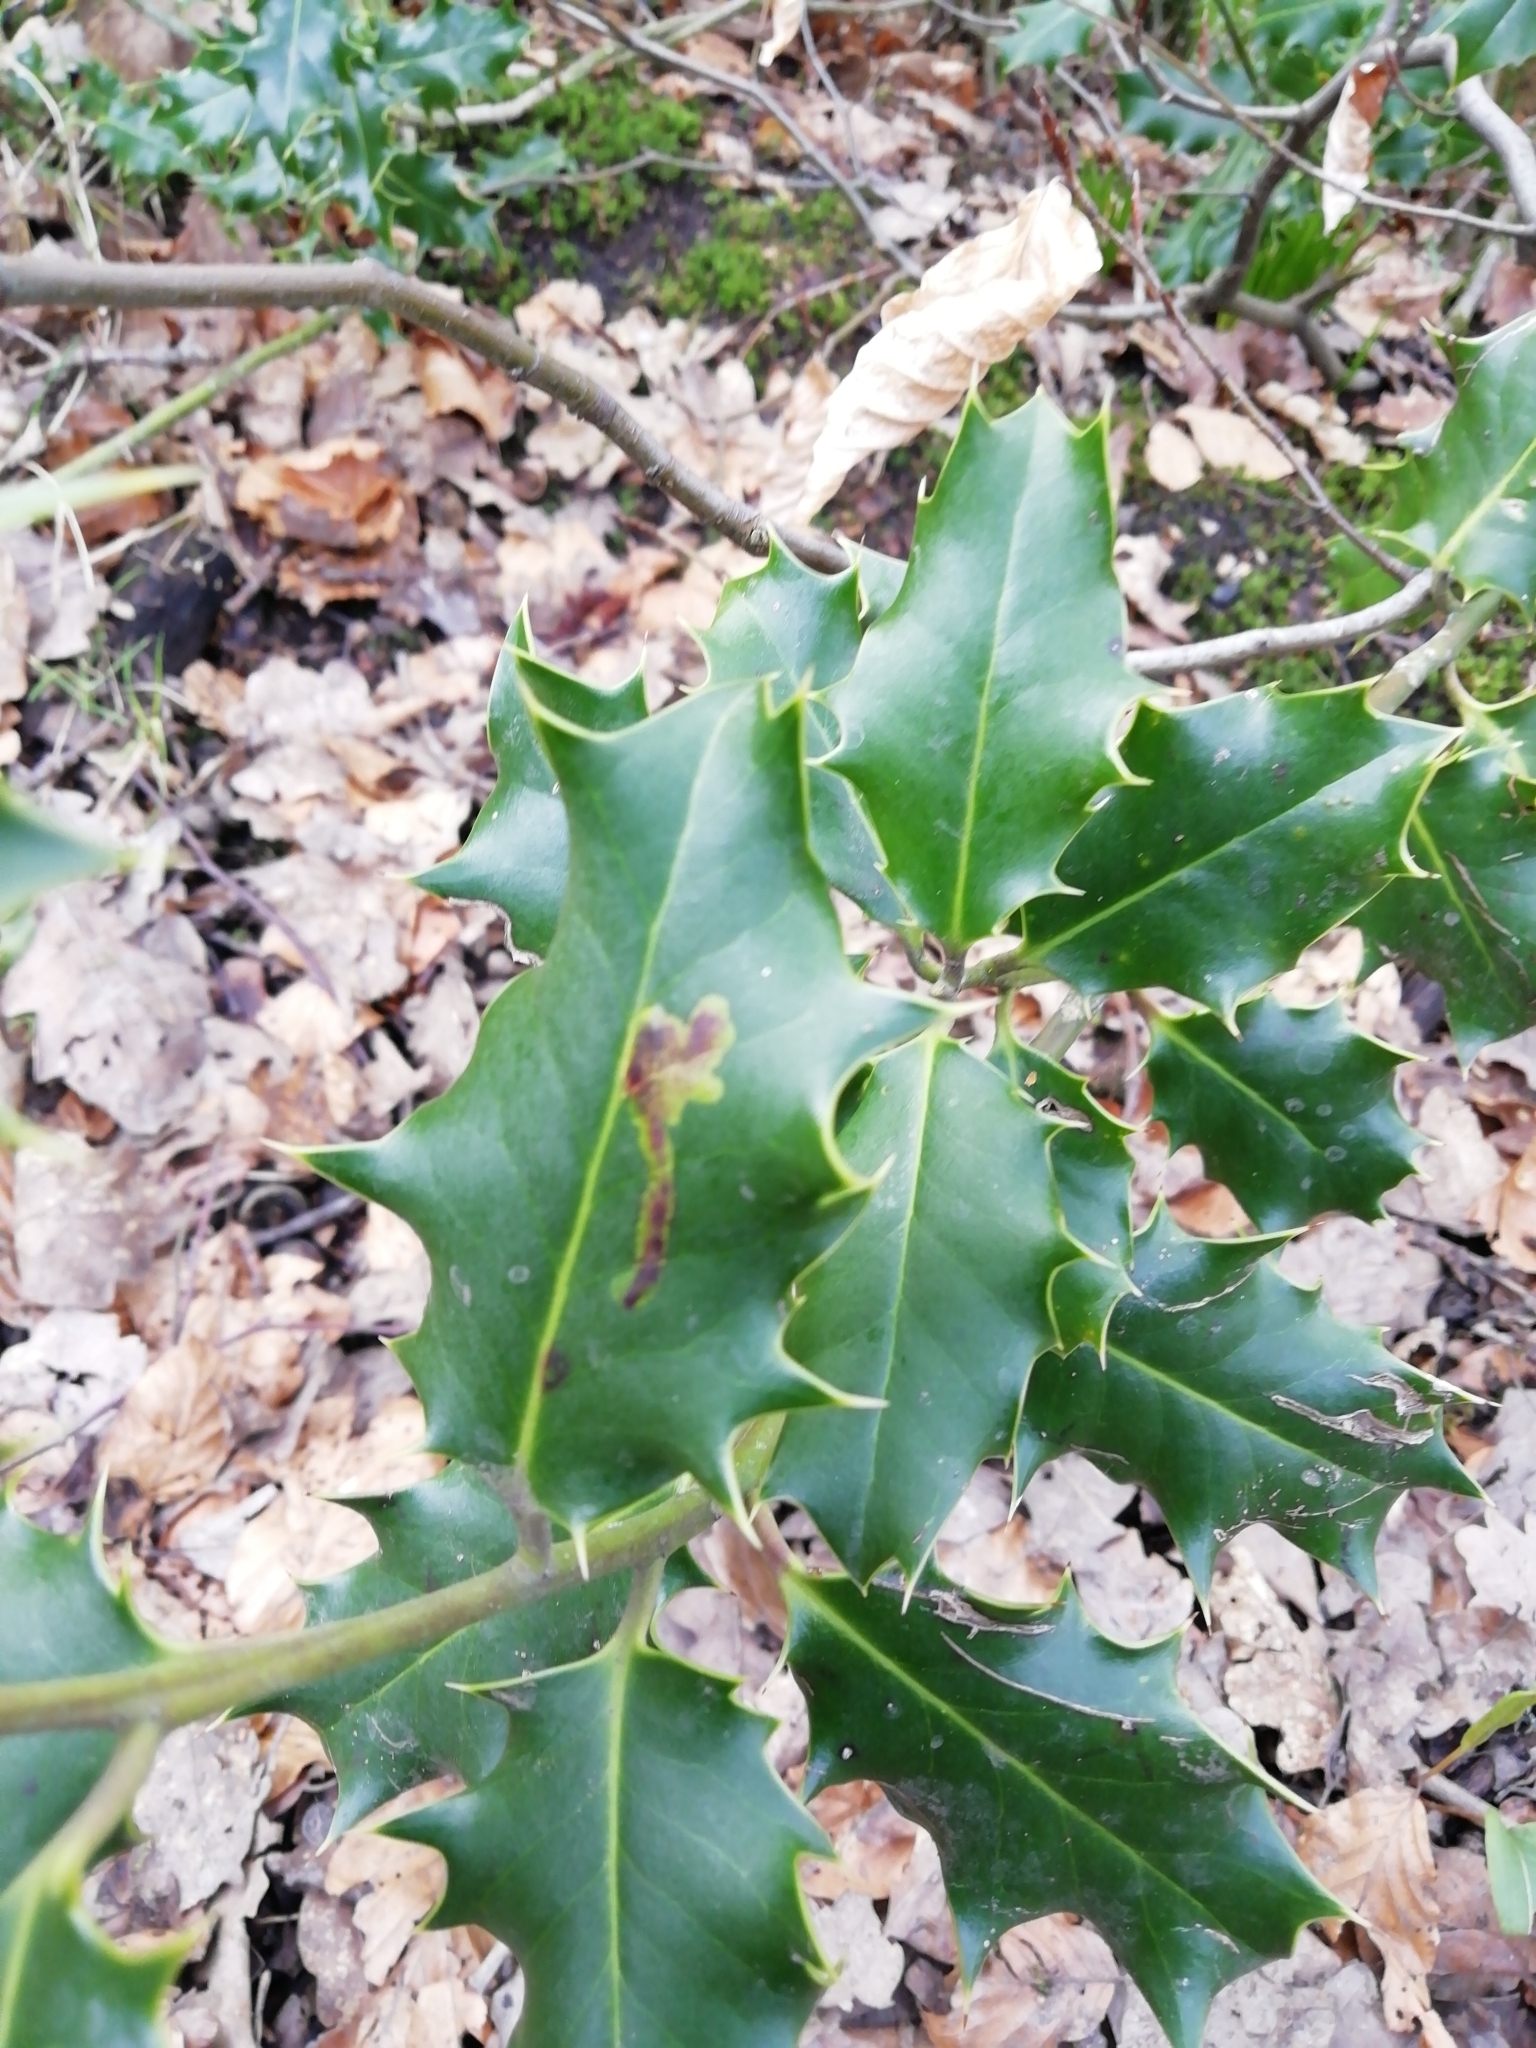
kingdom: Animalia
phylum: Arthropoda
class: Insecta
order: Diptera
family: Agromyzidae
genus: Phytomyza
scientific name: Phytomyza ilicis
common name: Holly leafminer
